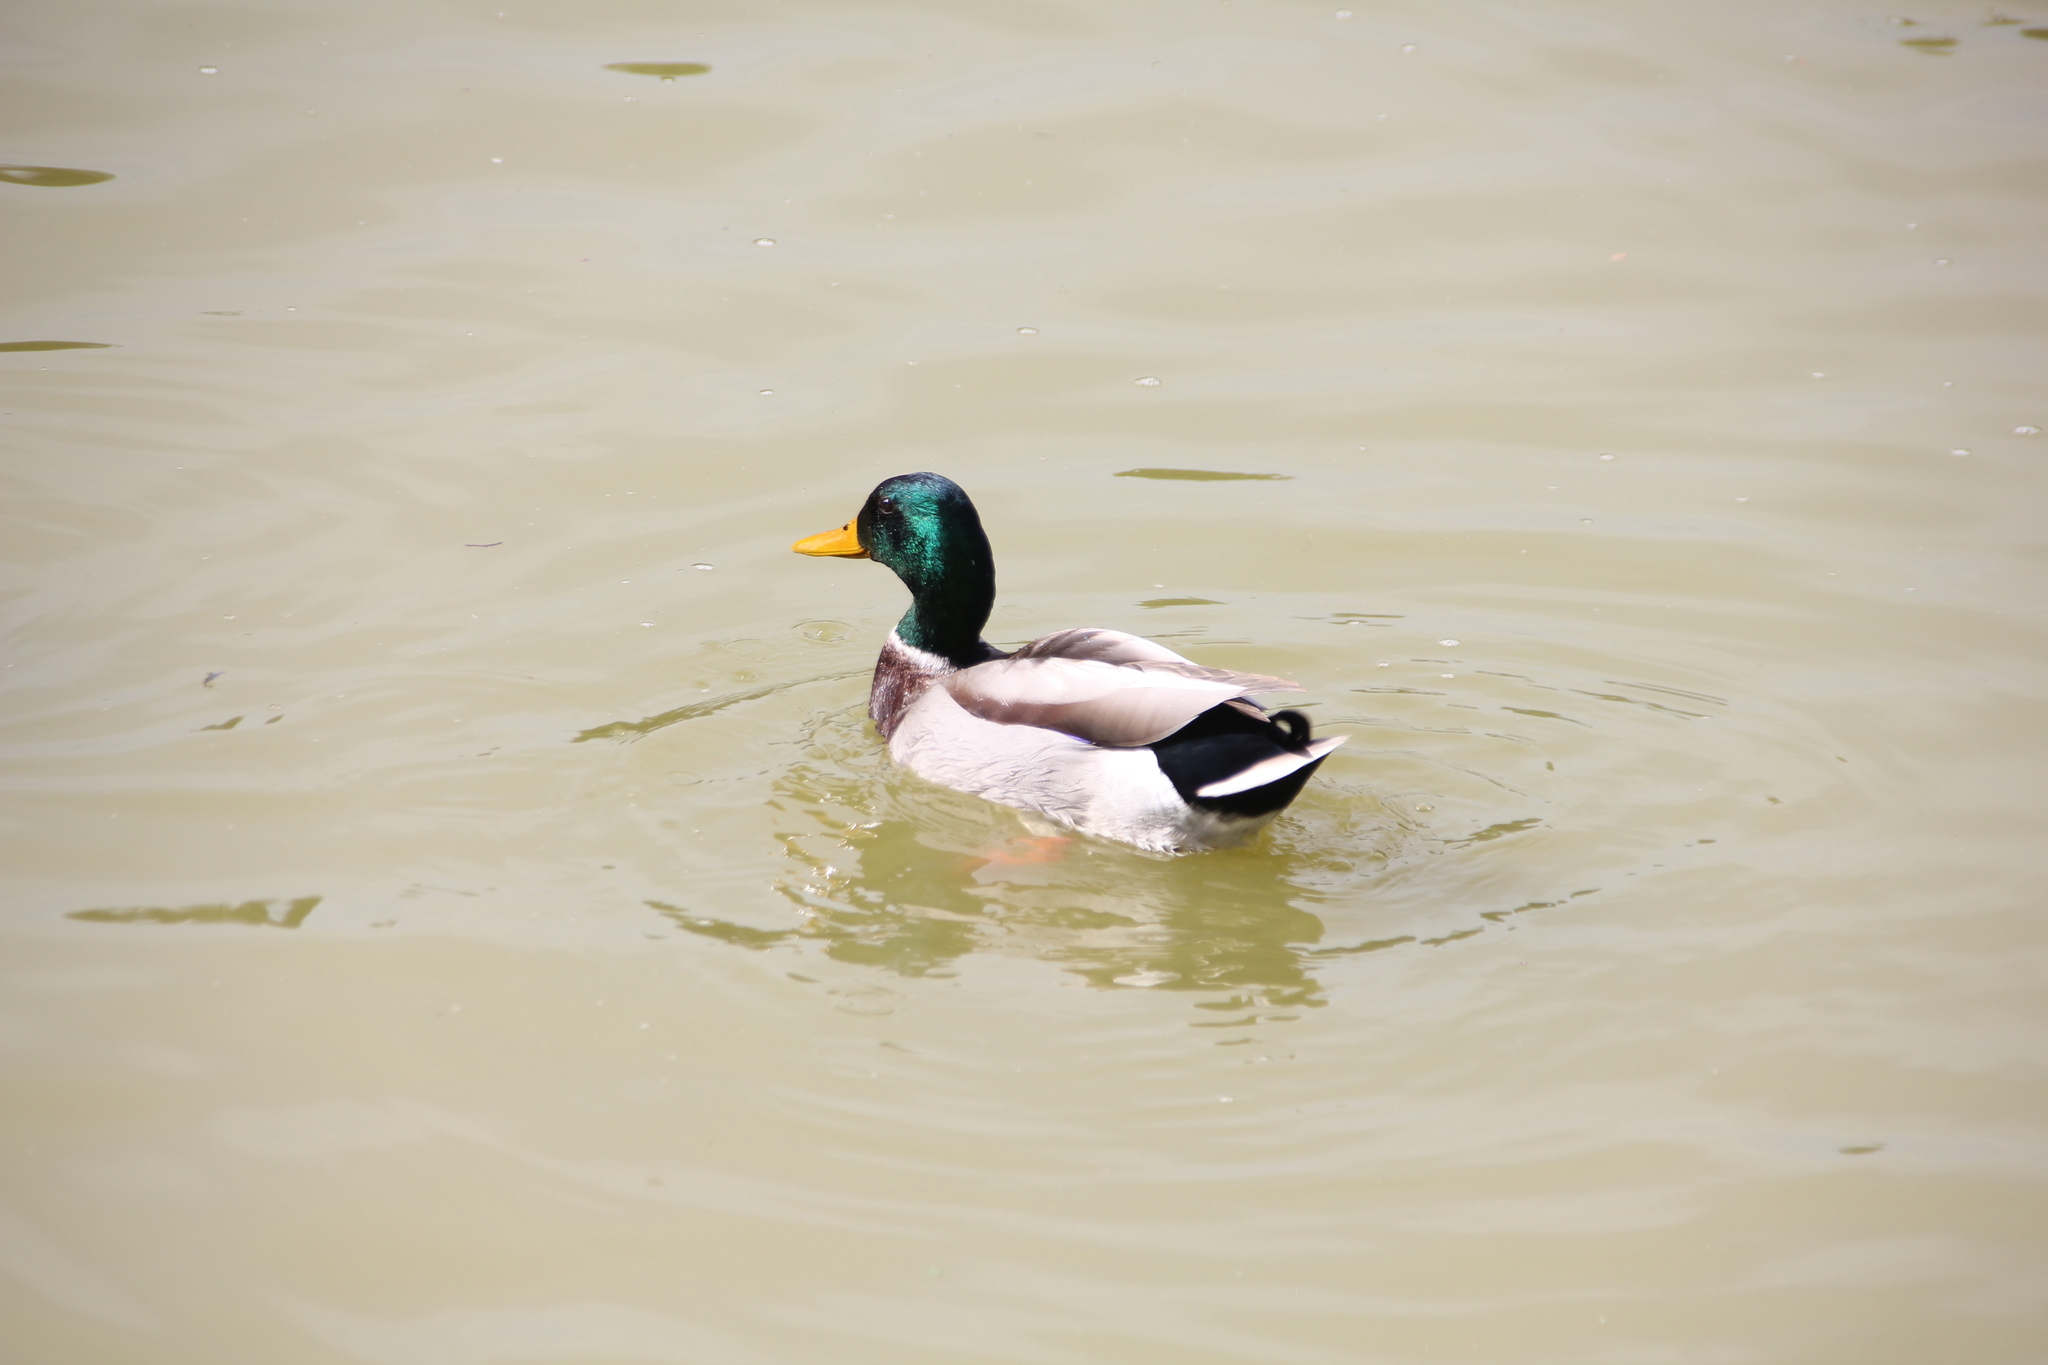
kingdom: Animalia
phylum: Chordata
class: Aves
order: Anseriformes
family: Anatidae
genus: Anas
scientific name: Anas platyrhynchos
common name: Mallard
